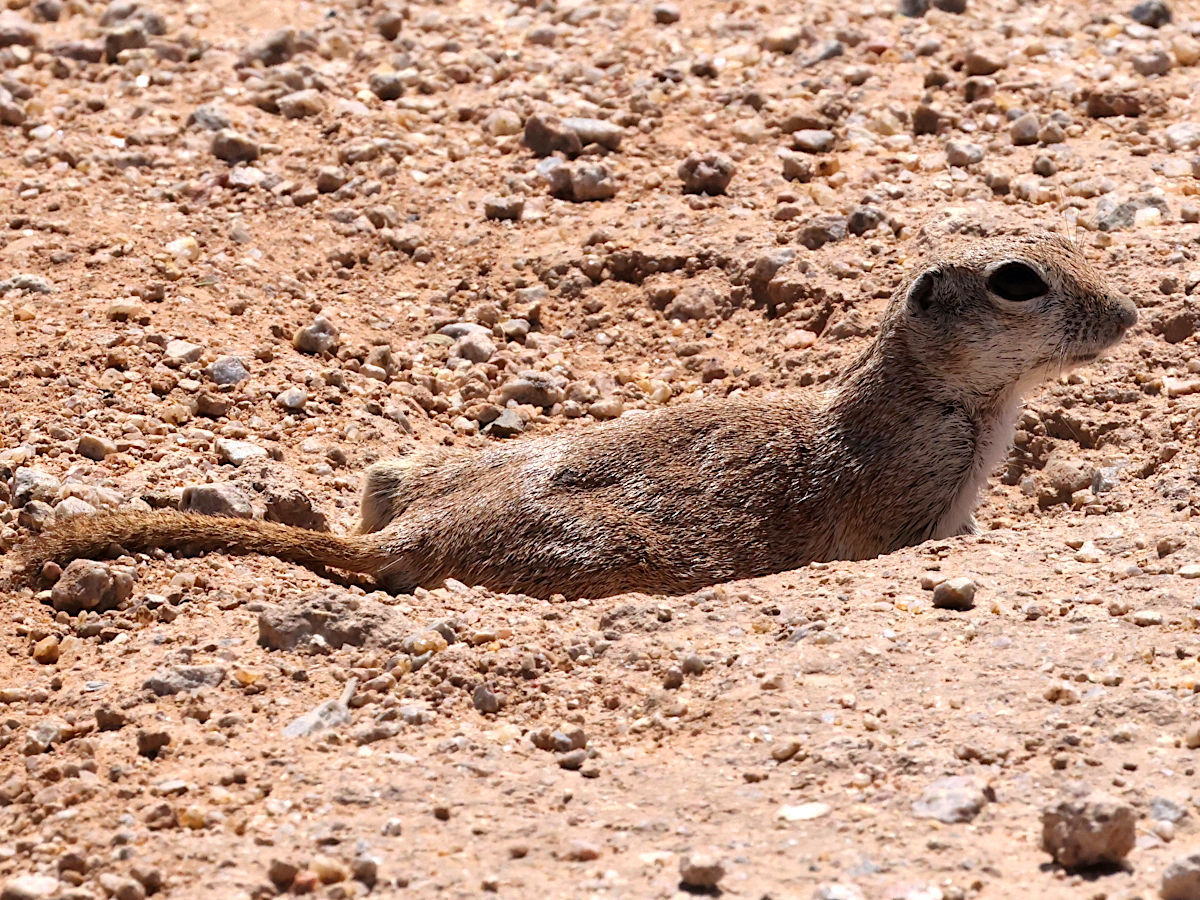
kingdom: Animalia
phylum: Chordata
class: Mammalia
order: Rodentia
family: Sciuridae
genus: Xerospermophilus
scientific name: Xerospermophilus tereticaudus
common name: Round-tailed ground squirrel
